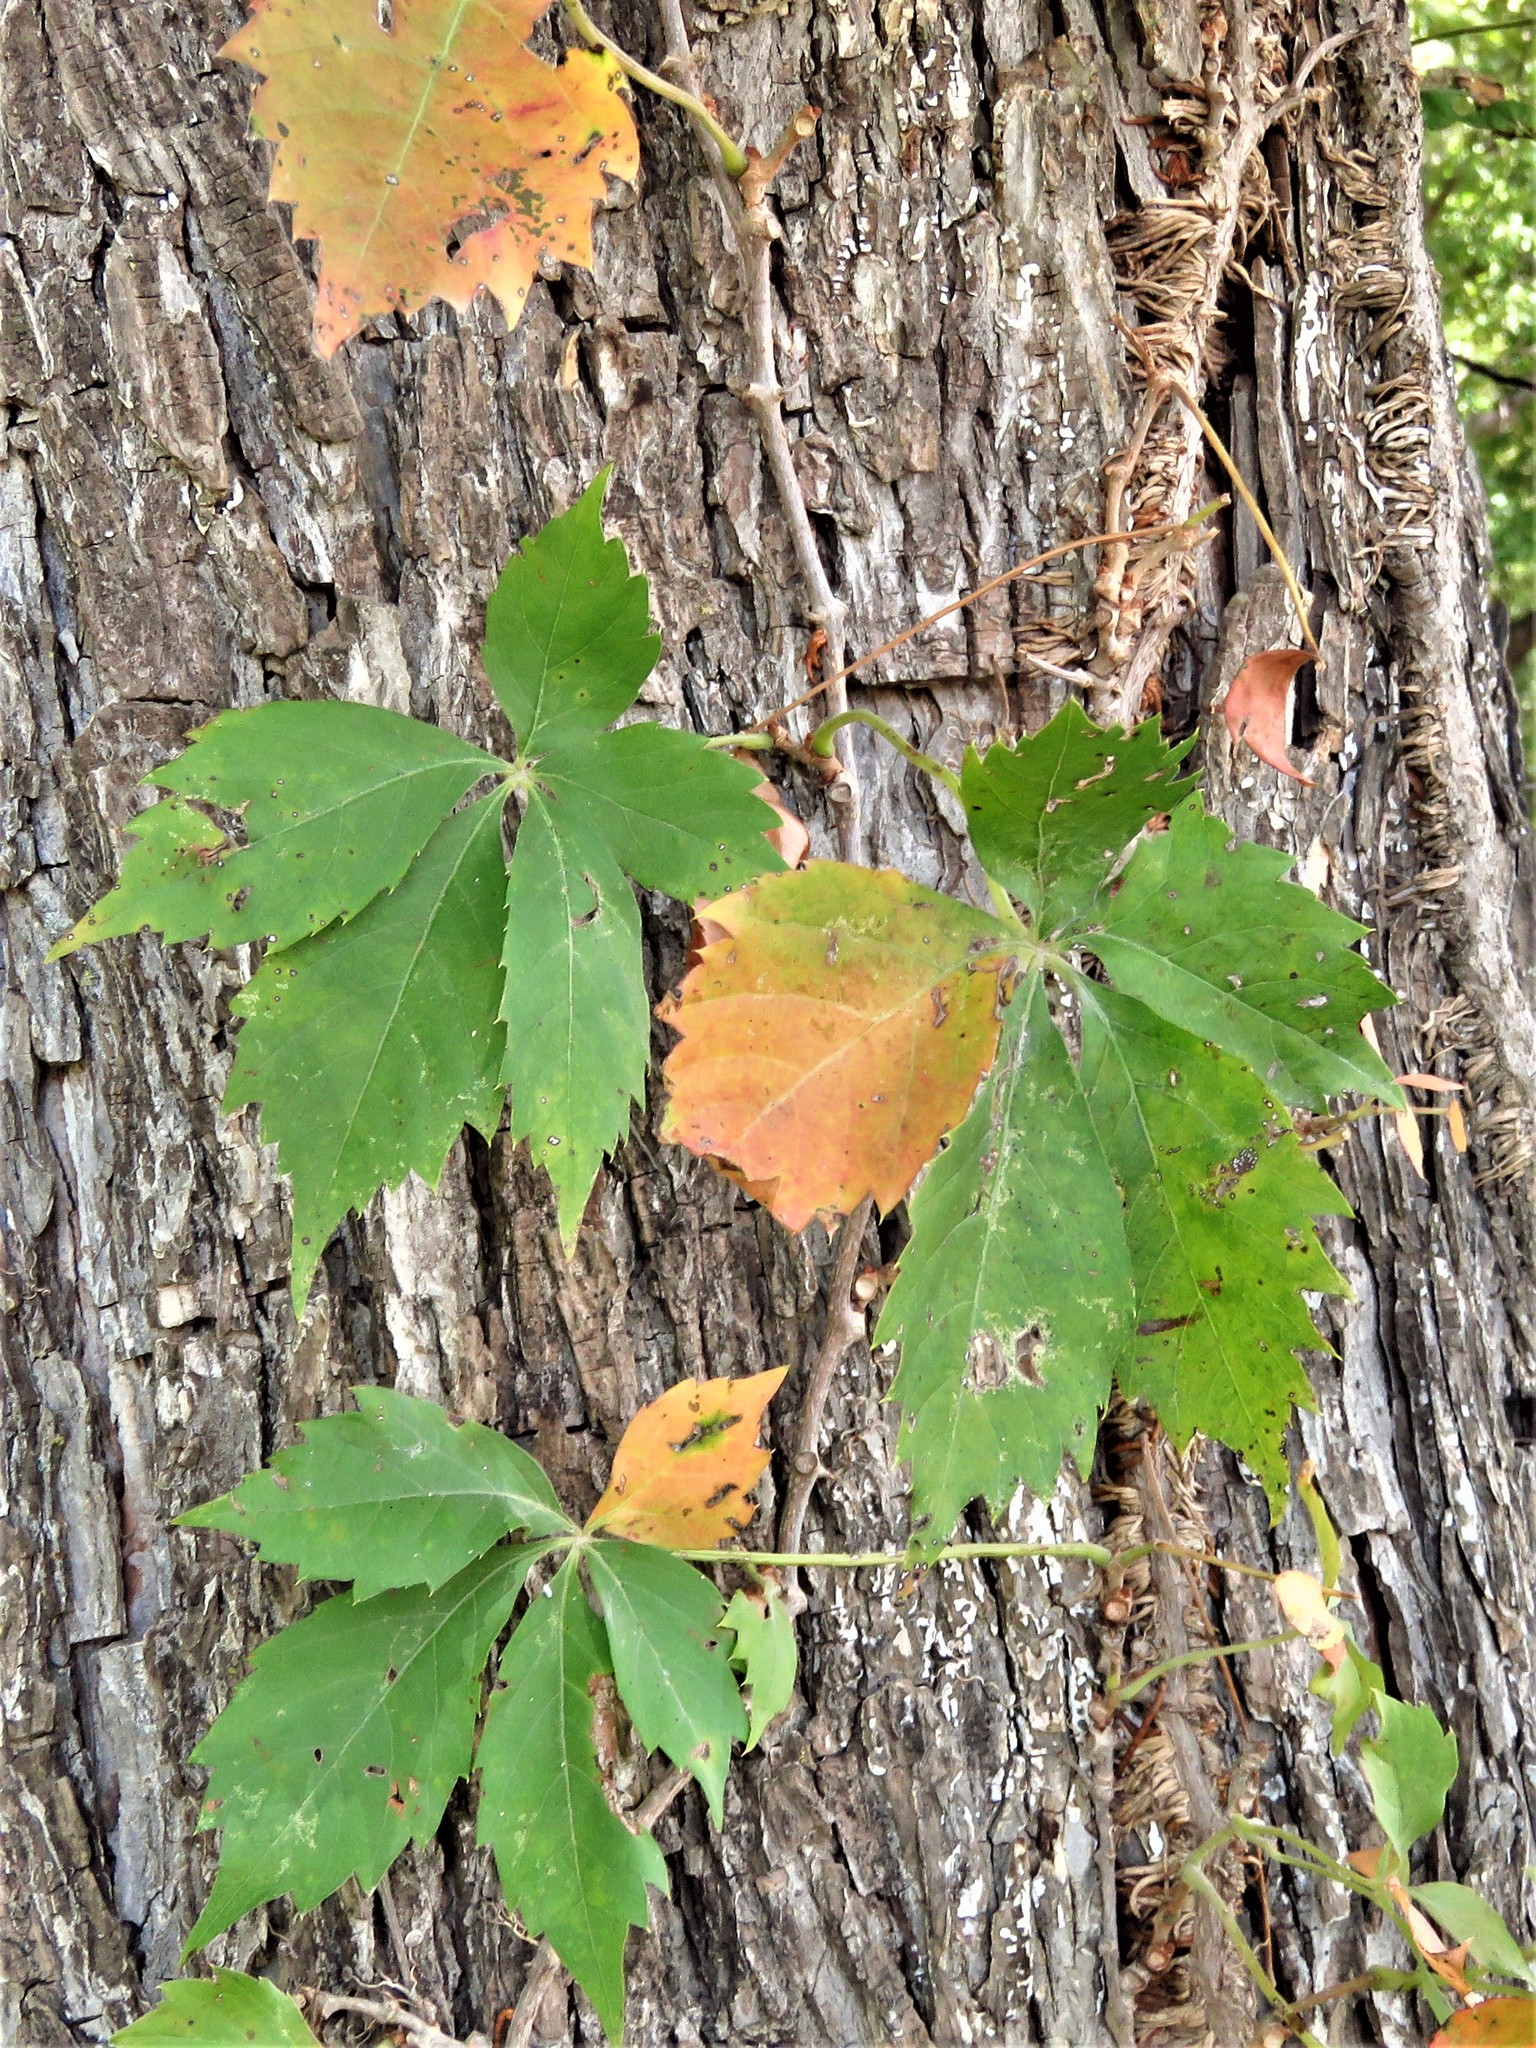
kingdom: Plantae
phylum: Tracheophyta
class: Magnoliopsida
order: Vitales
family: Vitaceae
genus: Parthenocissus
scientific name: Parthenocissus quinquefolia
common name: Virginia-creeper
